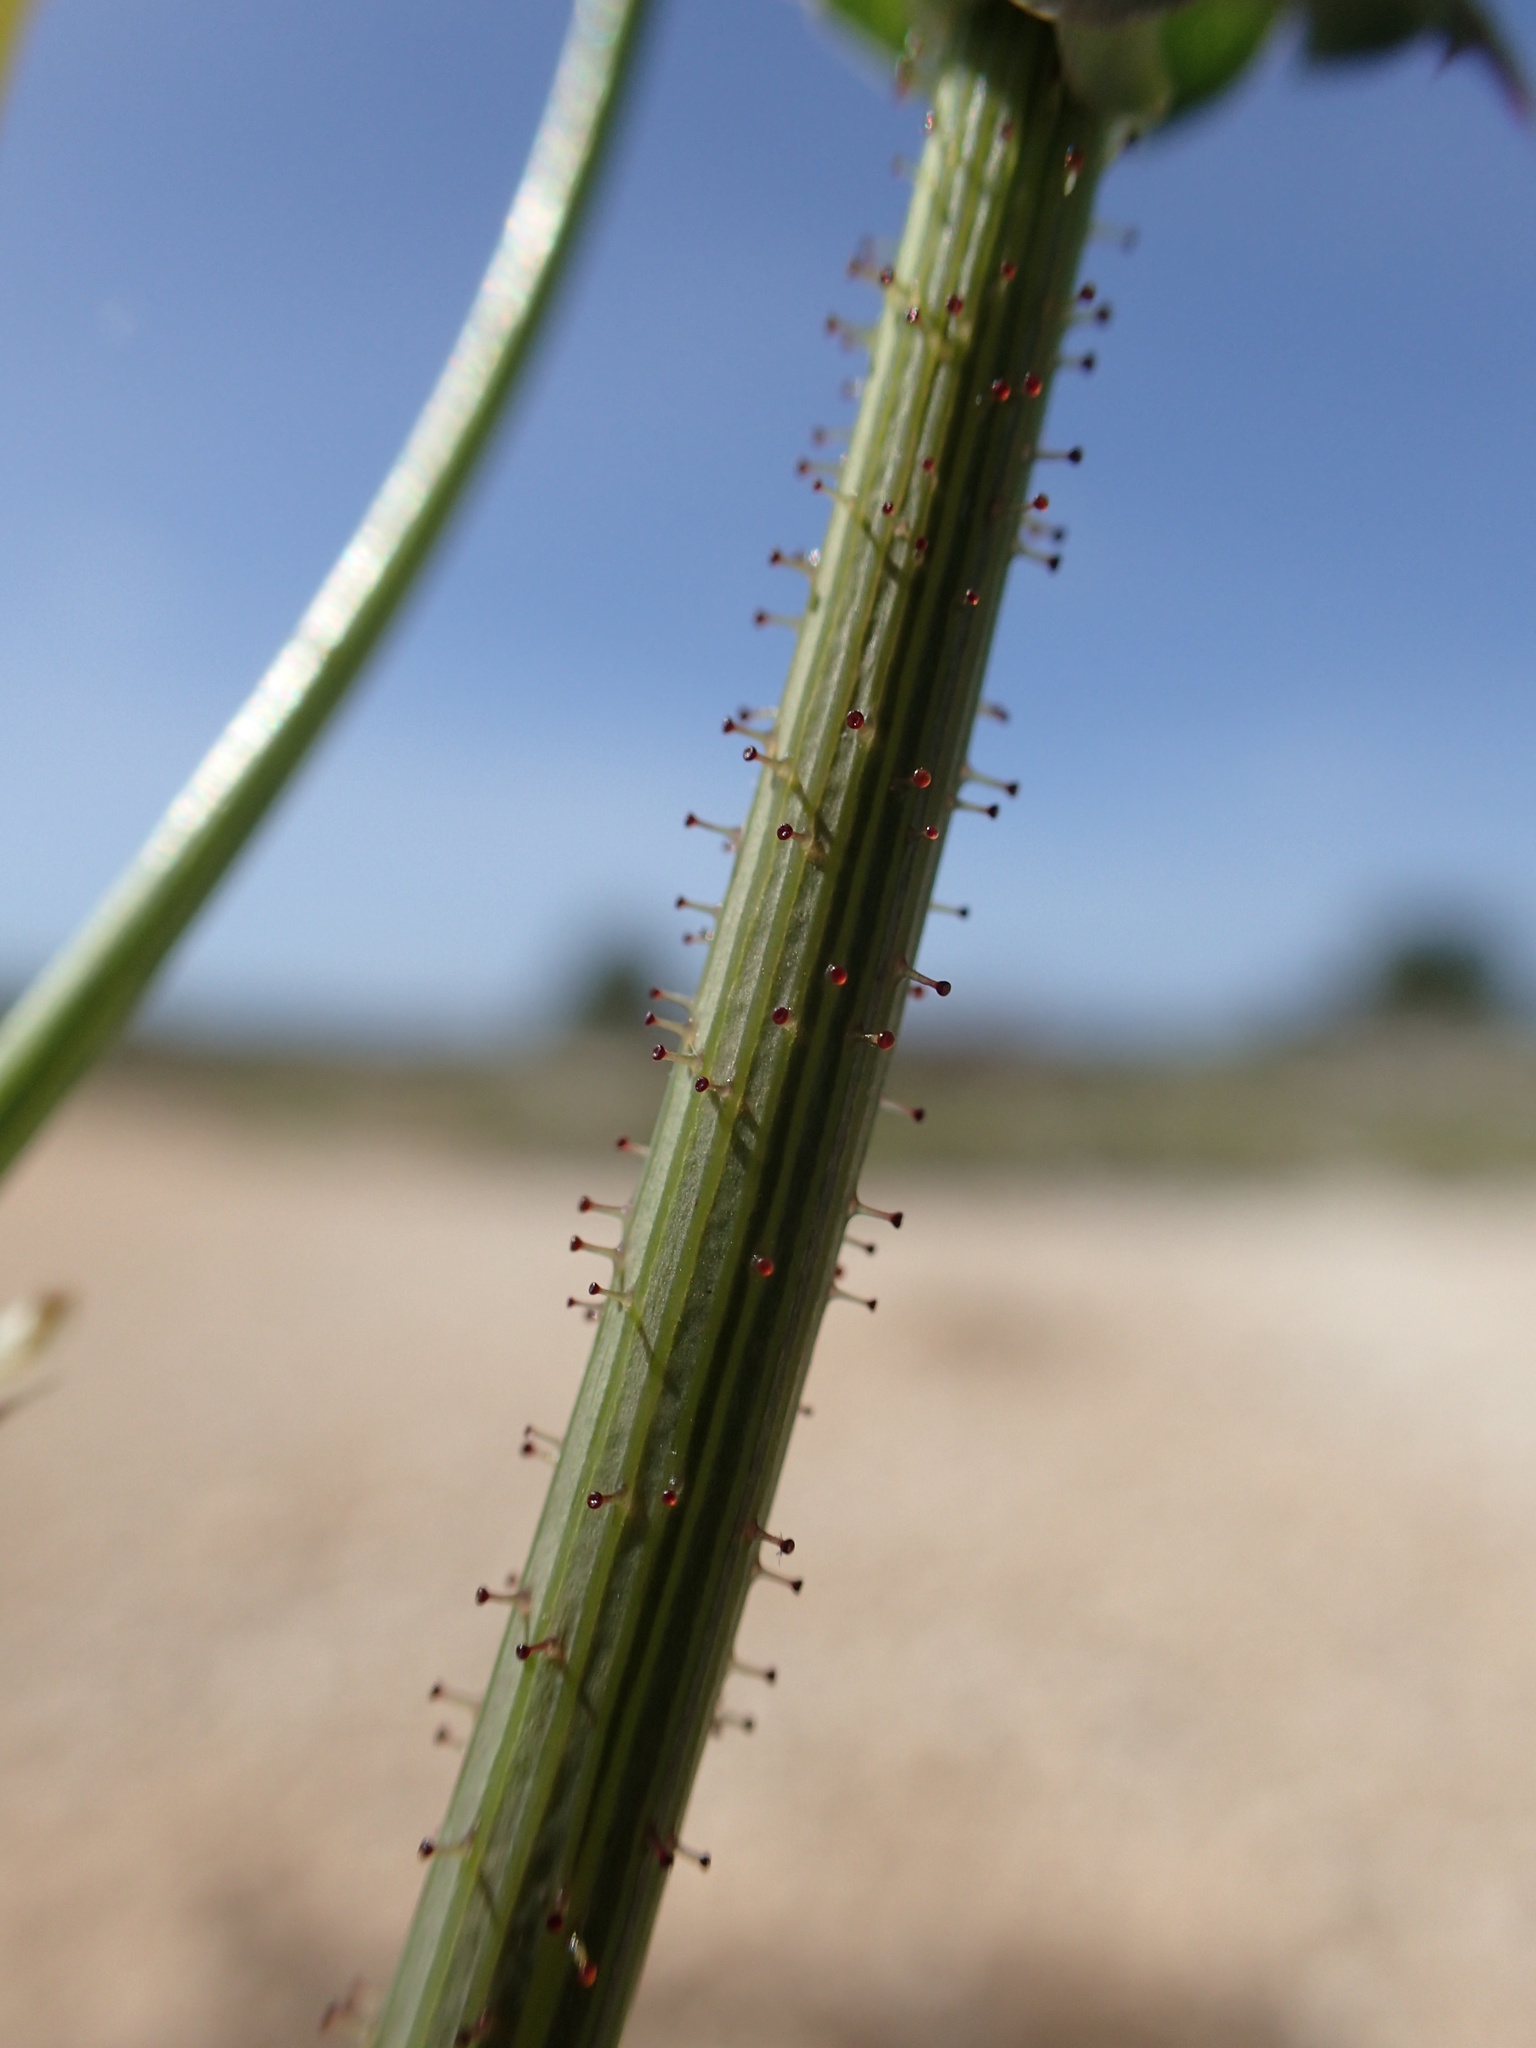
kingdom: Plantae
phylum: Tracheophyta
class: Magnoliopsida
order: Asterales
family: Asteraceae
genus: Sonchus
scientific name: Sonchus oleraceus
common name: Common sowthistle
